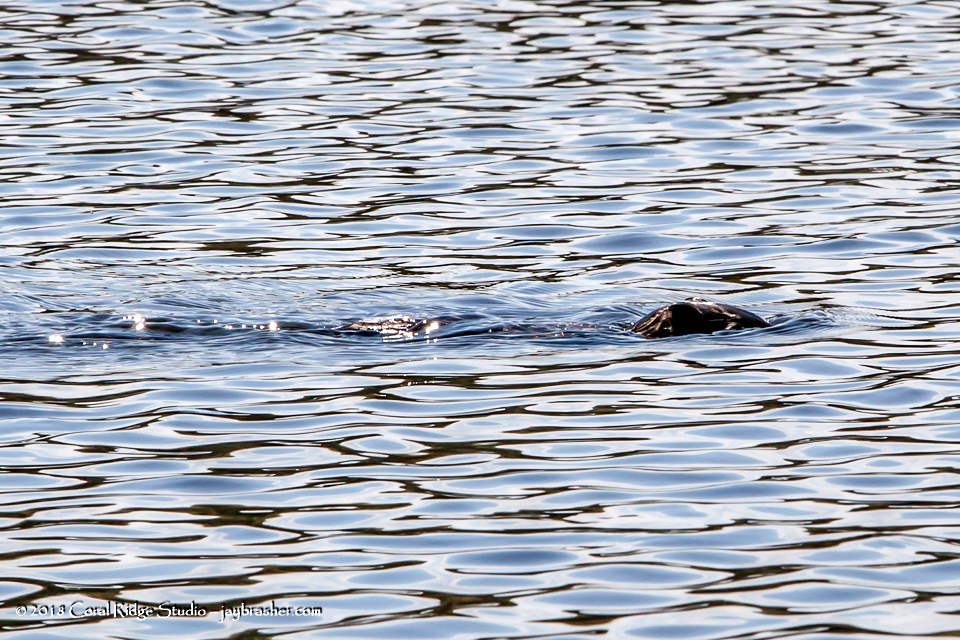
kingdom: Animalia
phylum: Chordata
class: Mammalia
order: Rodentia
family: Cricetidae
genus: Ondatra
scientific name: Ondatra zibethicus
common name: Muskrat
